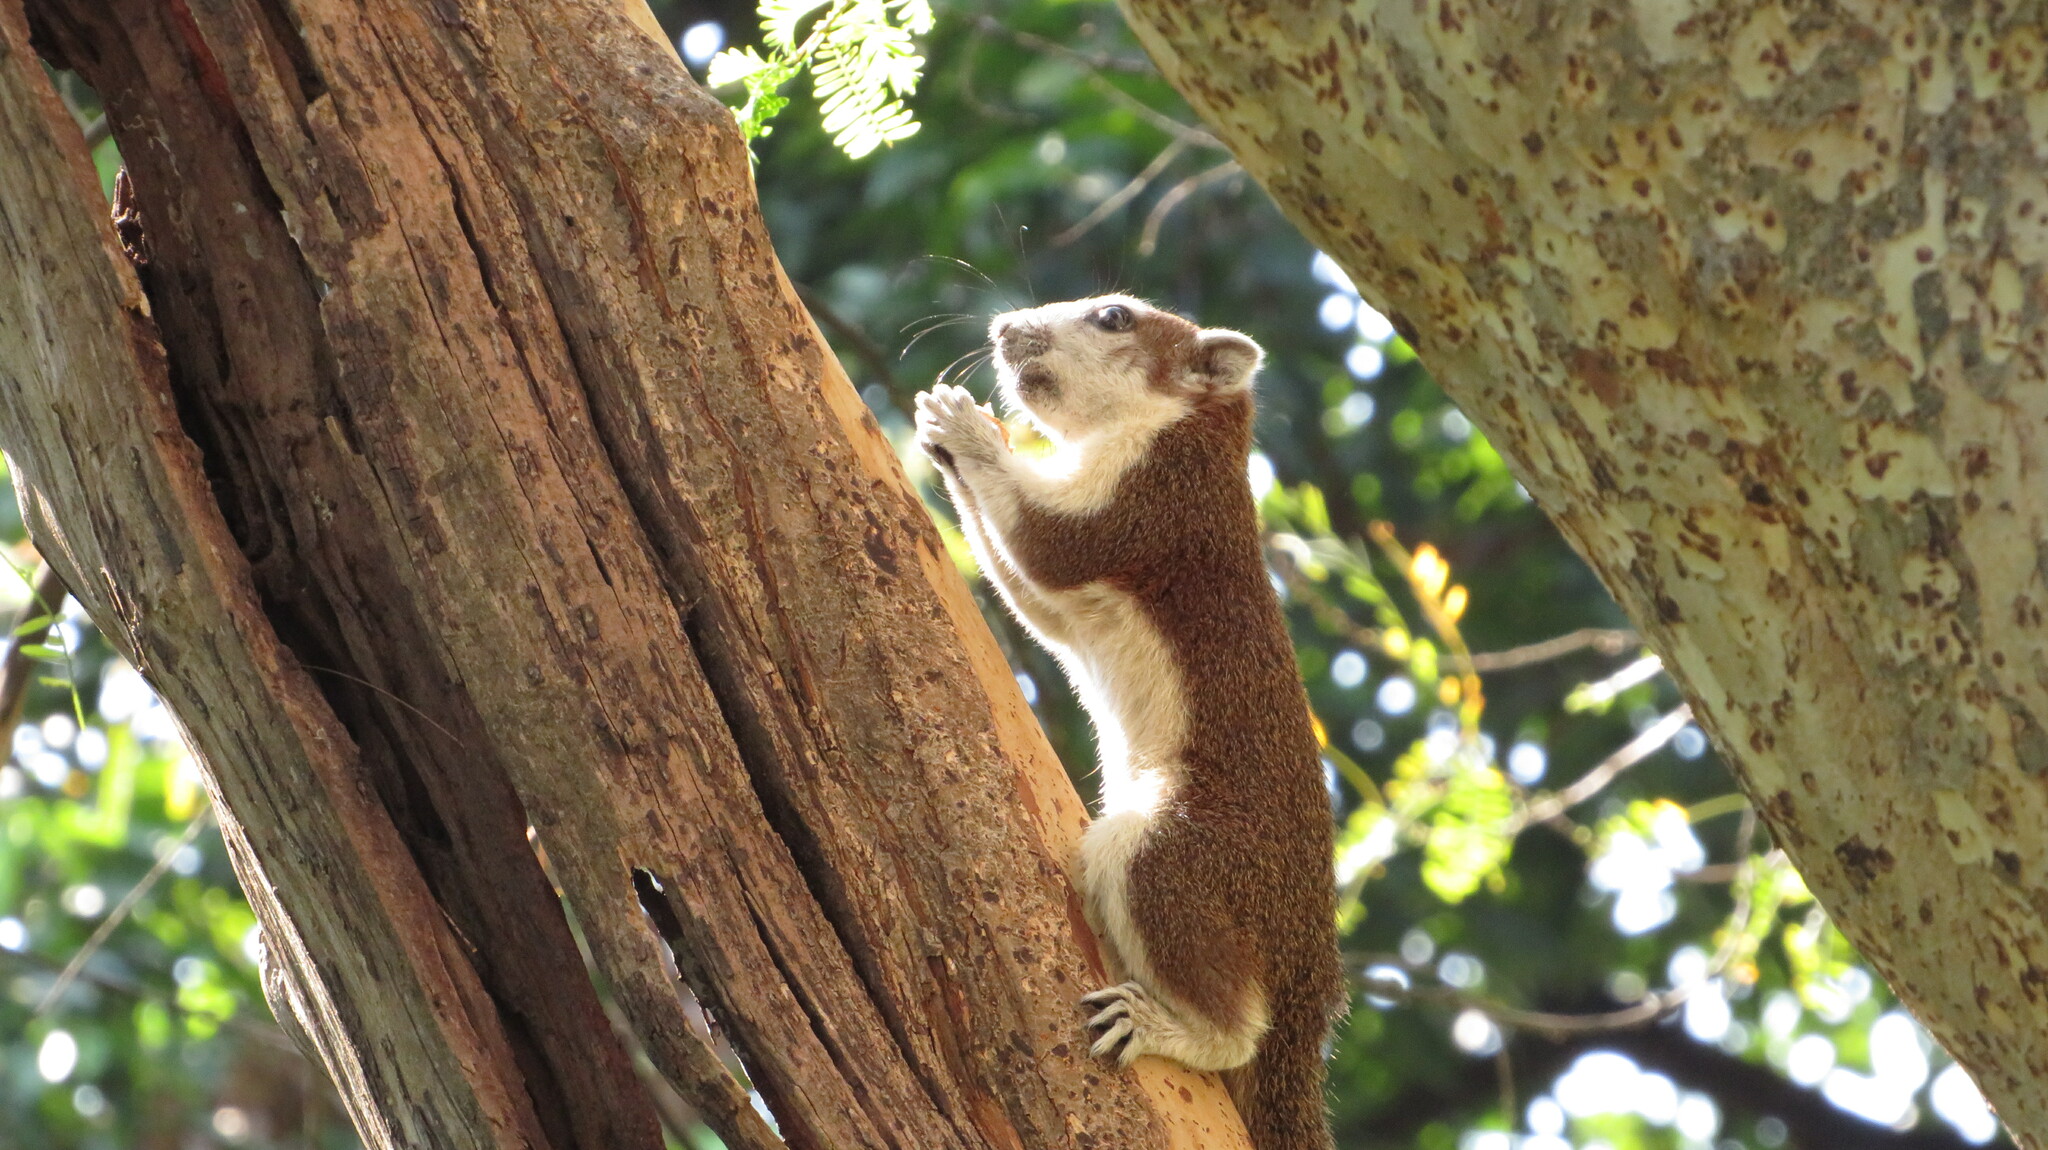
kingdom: Animalia
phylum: Chordata
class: Mammalia
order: Rodentia
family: Sciuridae
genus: Callosciurus
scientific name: Callosciurus finlaysonii
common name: Finlayson's squirrel
